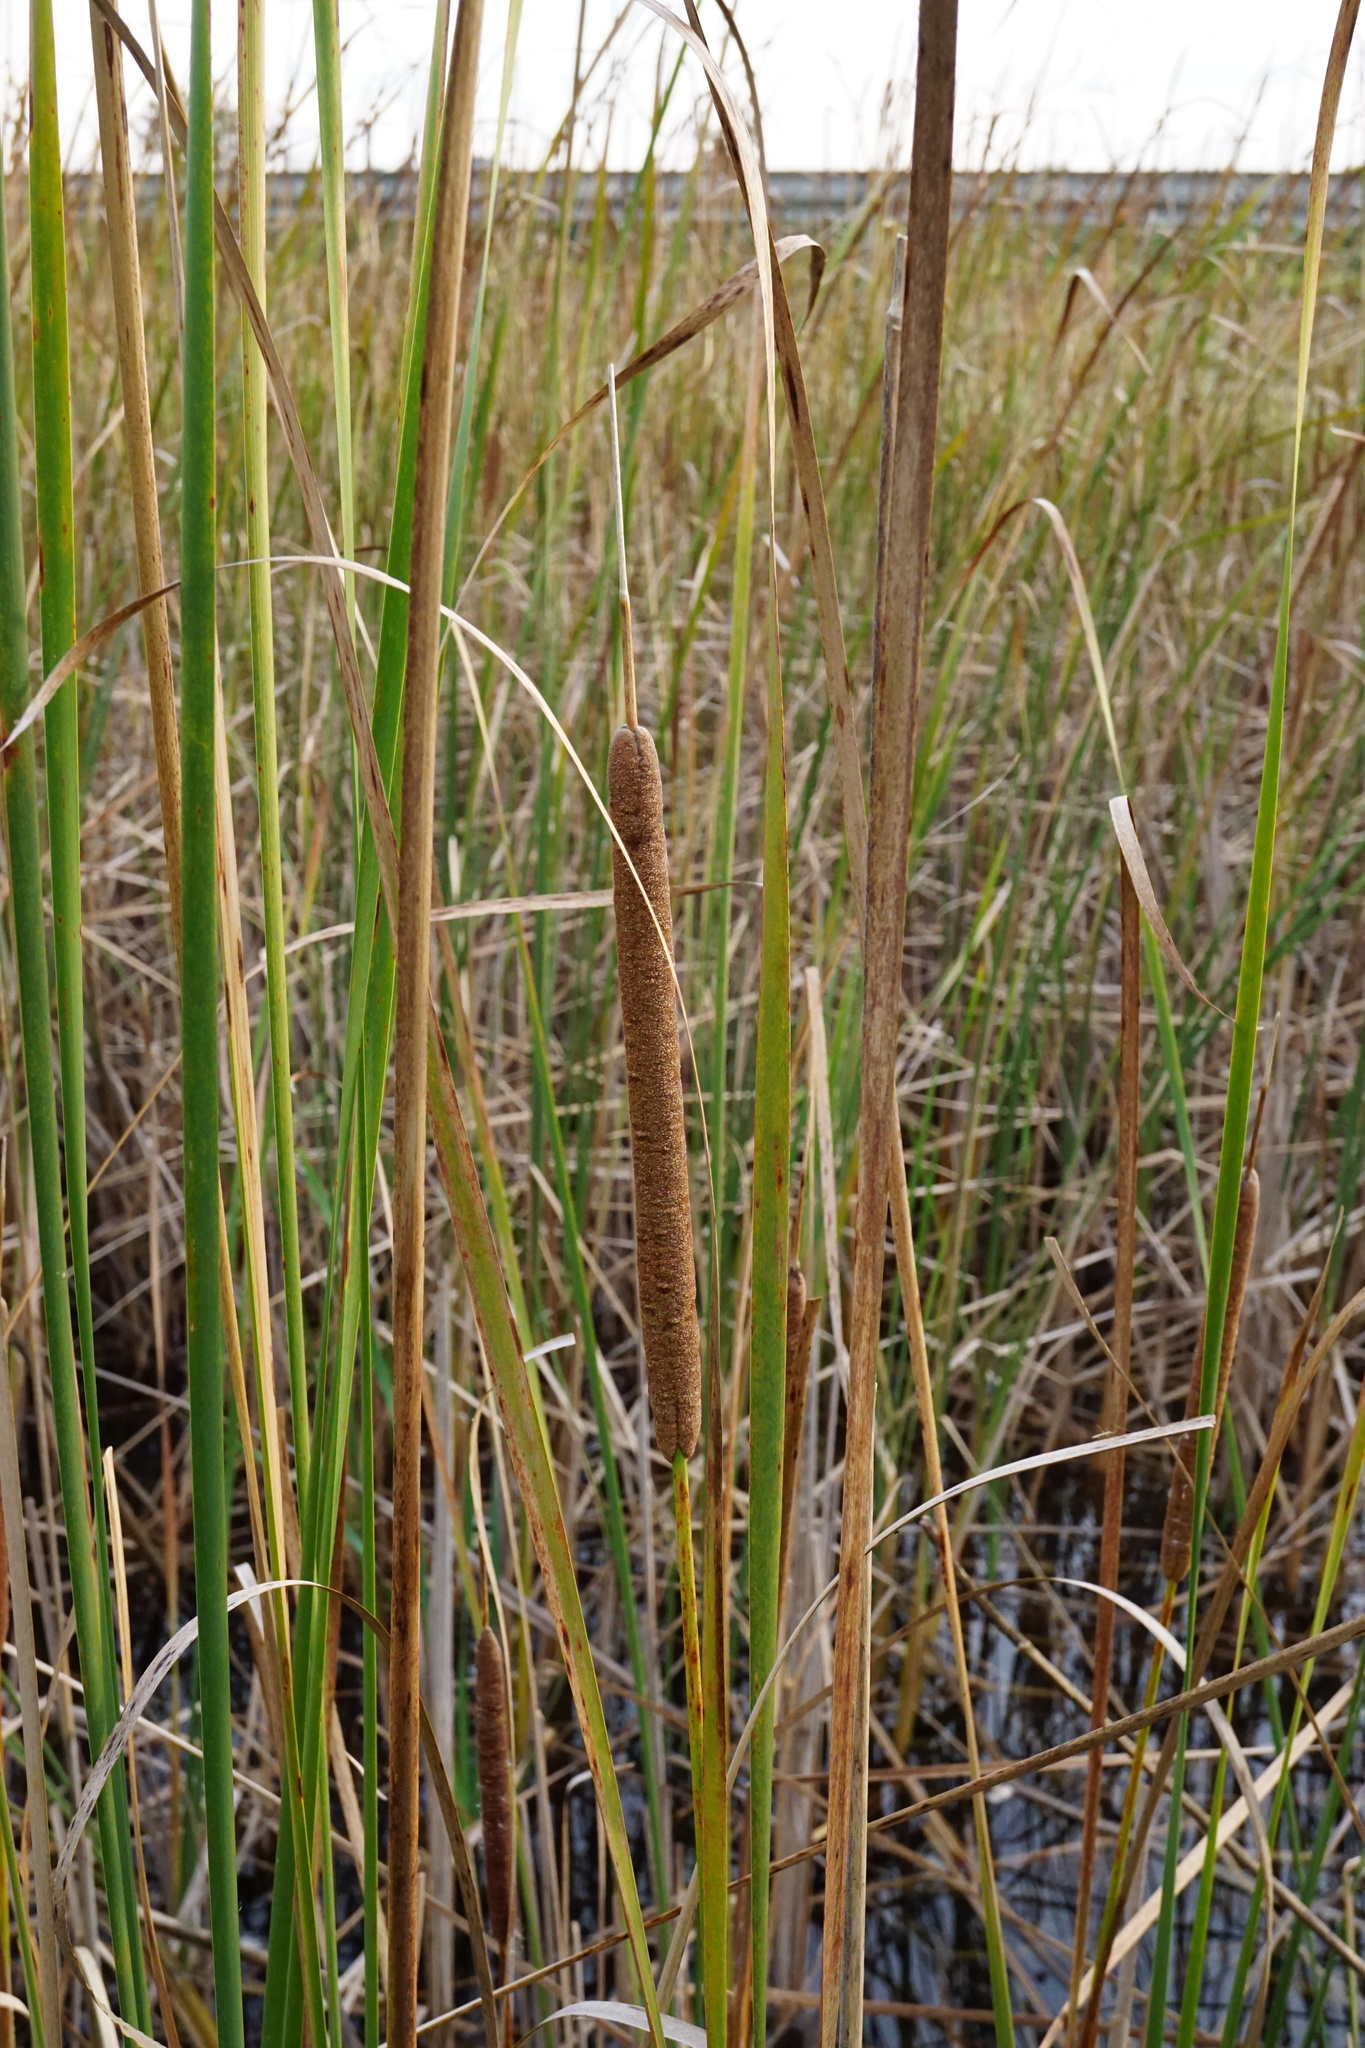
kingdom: Plantae
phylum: Tracheophyta
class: Liliopsida
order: Poales
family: Typhaceae
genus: Typha
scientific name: Typha angustifolia
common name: Lesser bulrush
